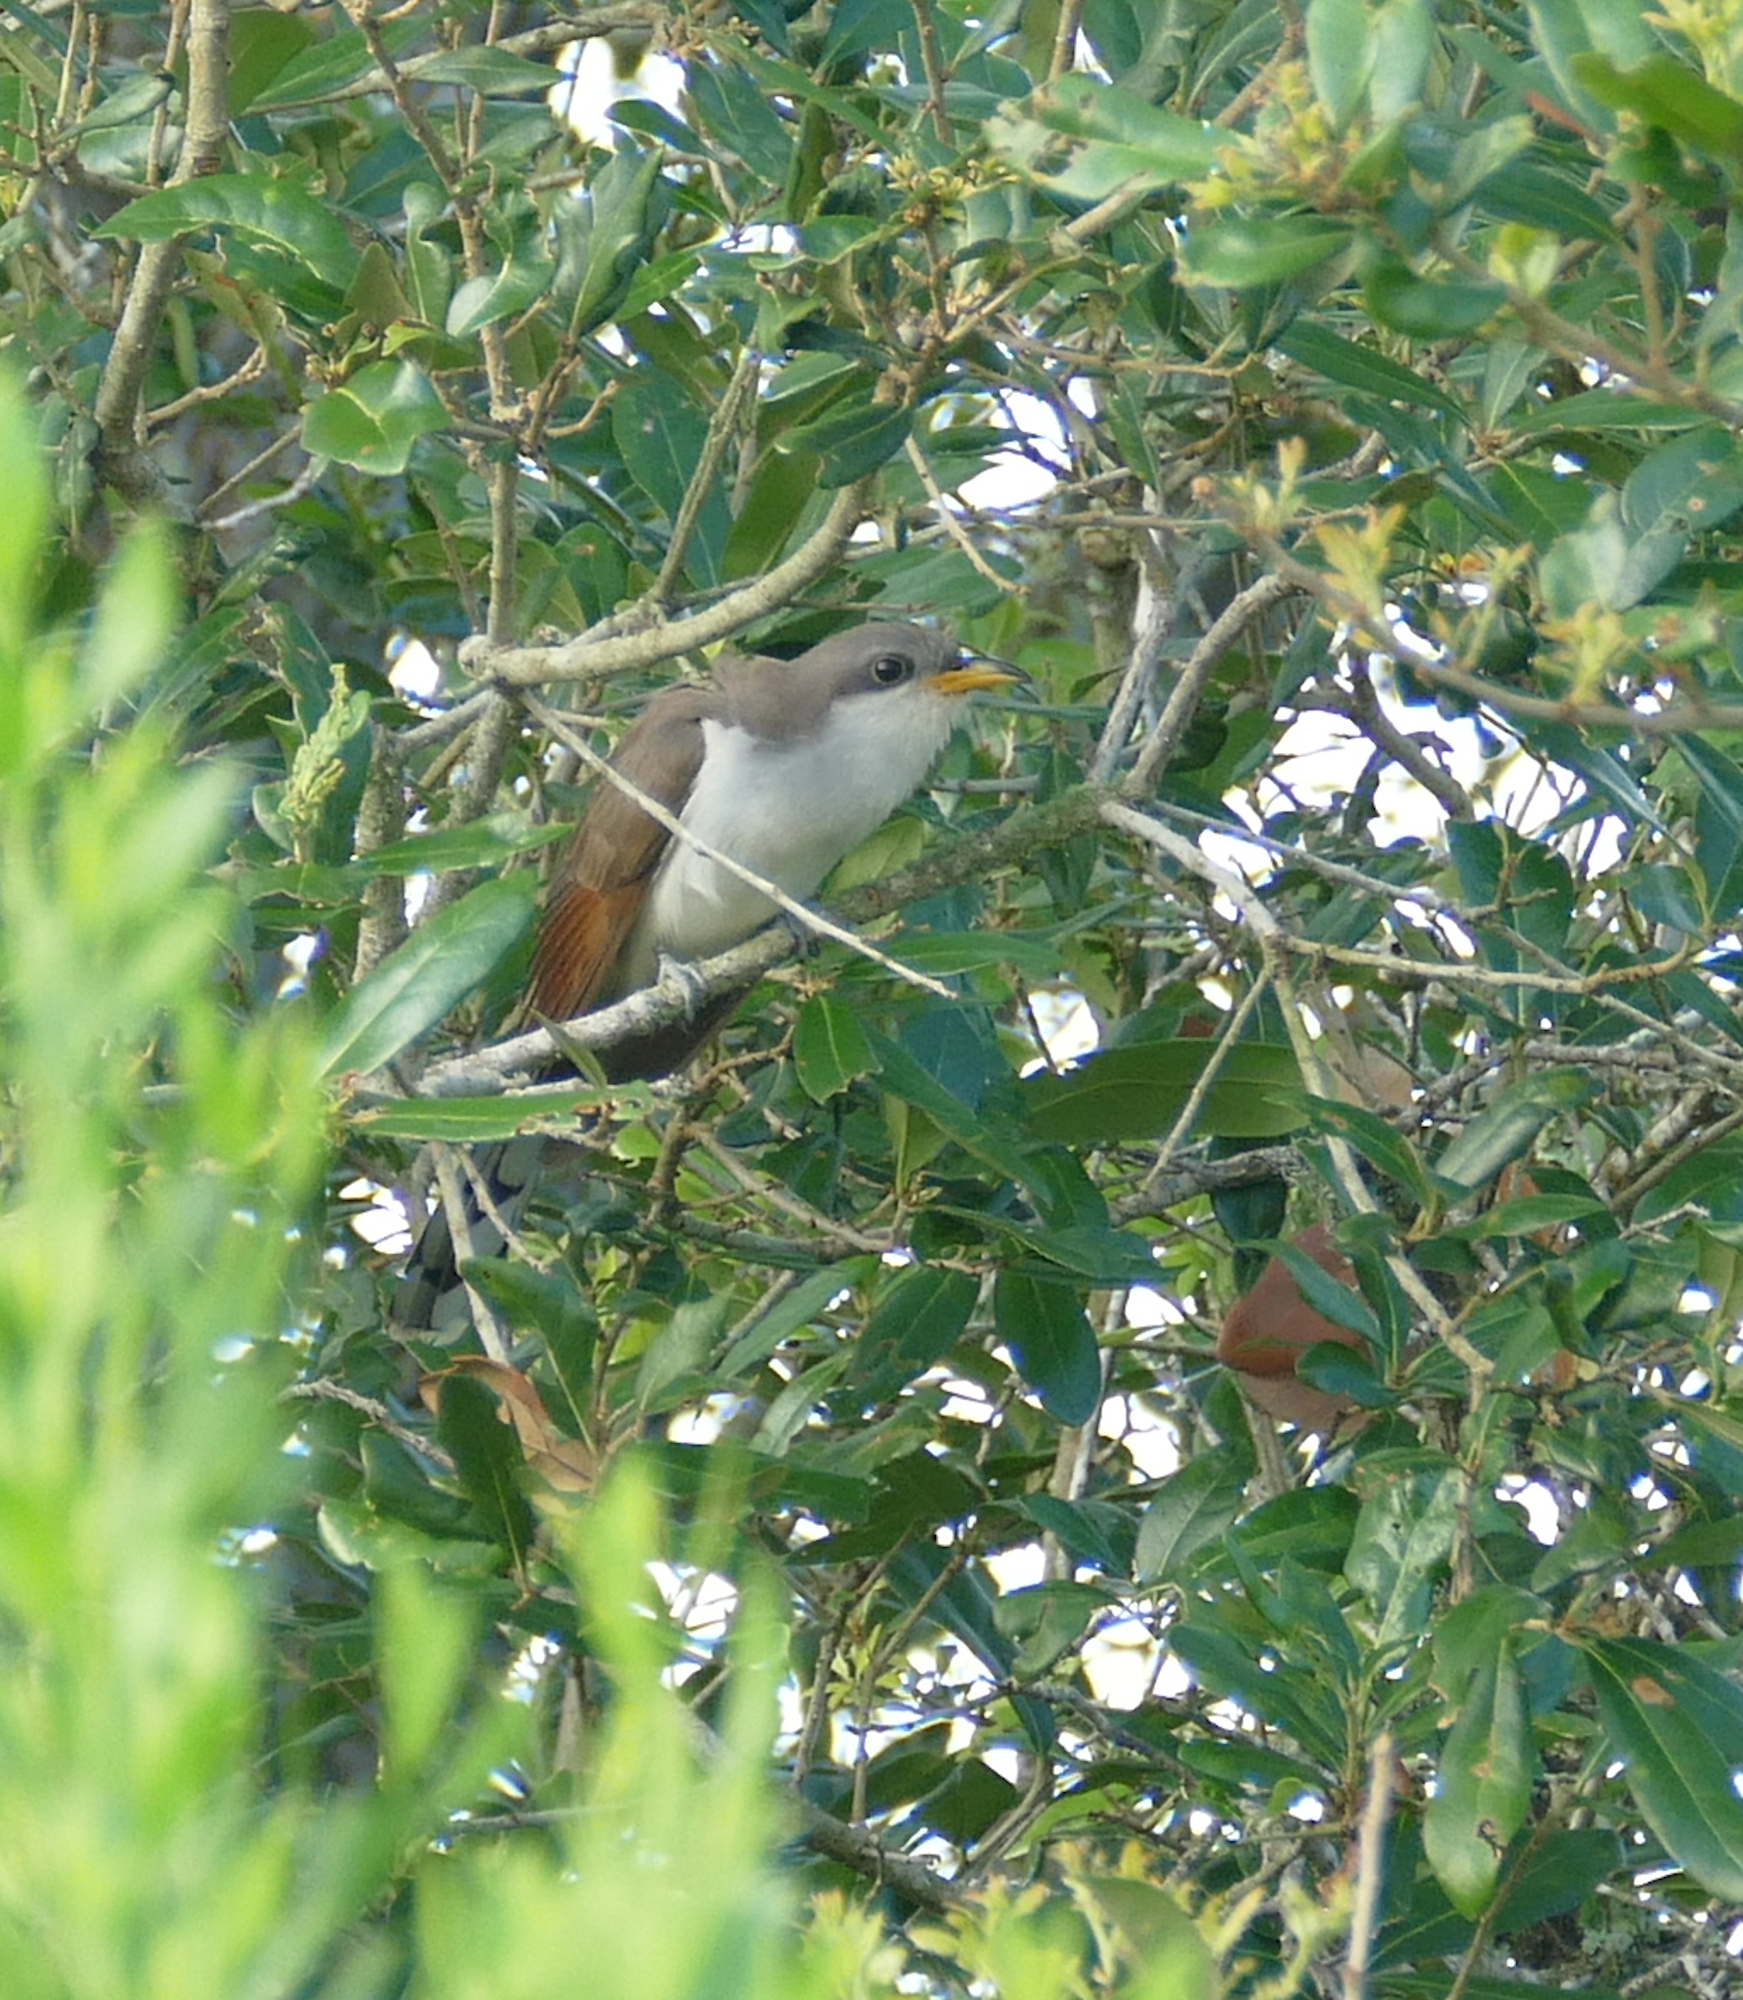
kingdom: Animalia
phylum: Chordata
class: Aves
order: Cuculiformes
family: Cuculidae
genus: Coccyzus
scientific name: Coccyzus americanus
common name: Yellow-billed cuckoo
